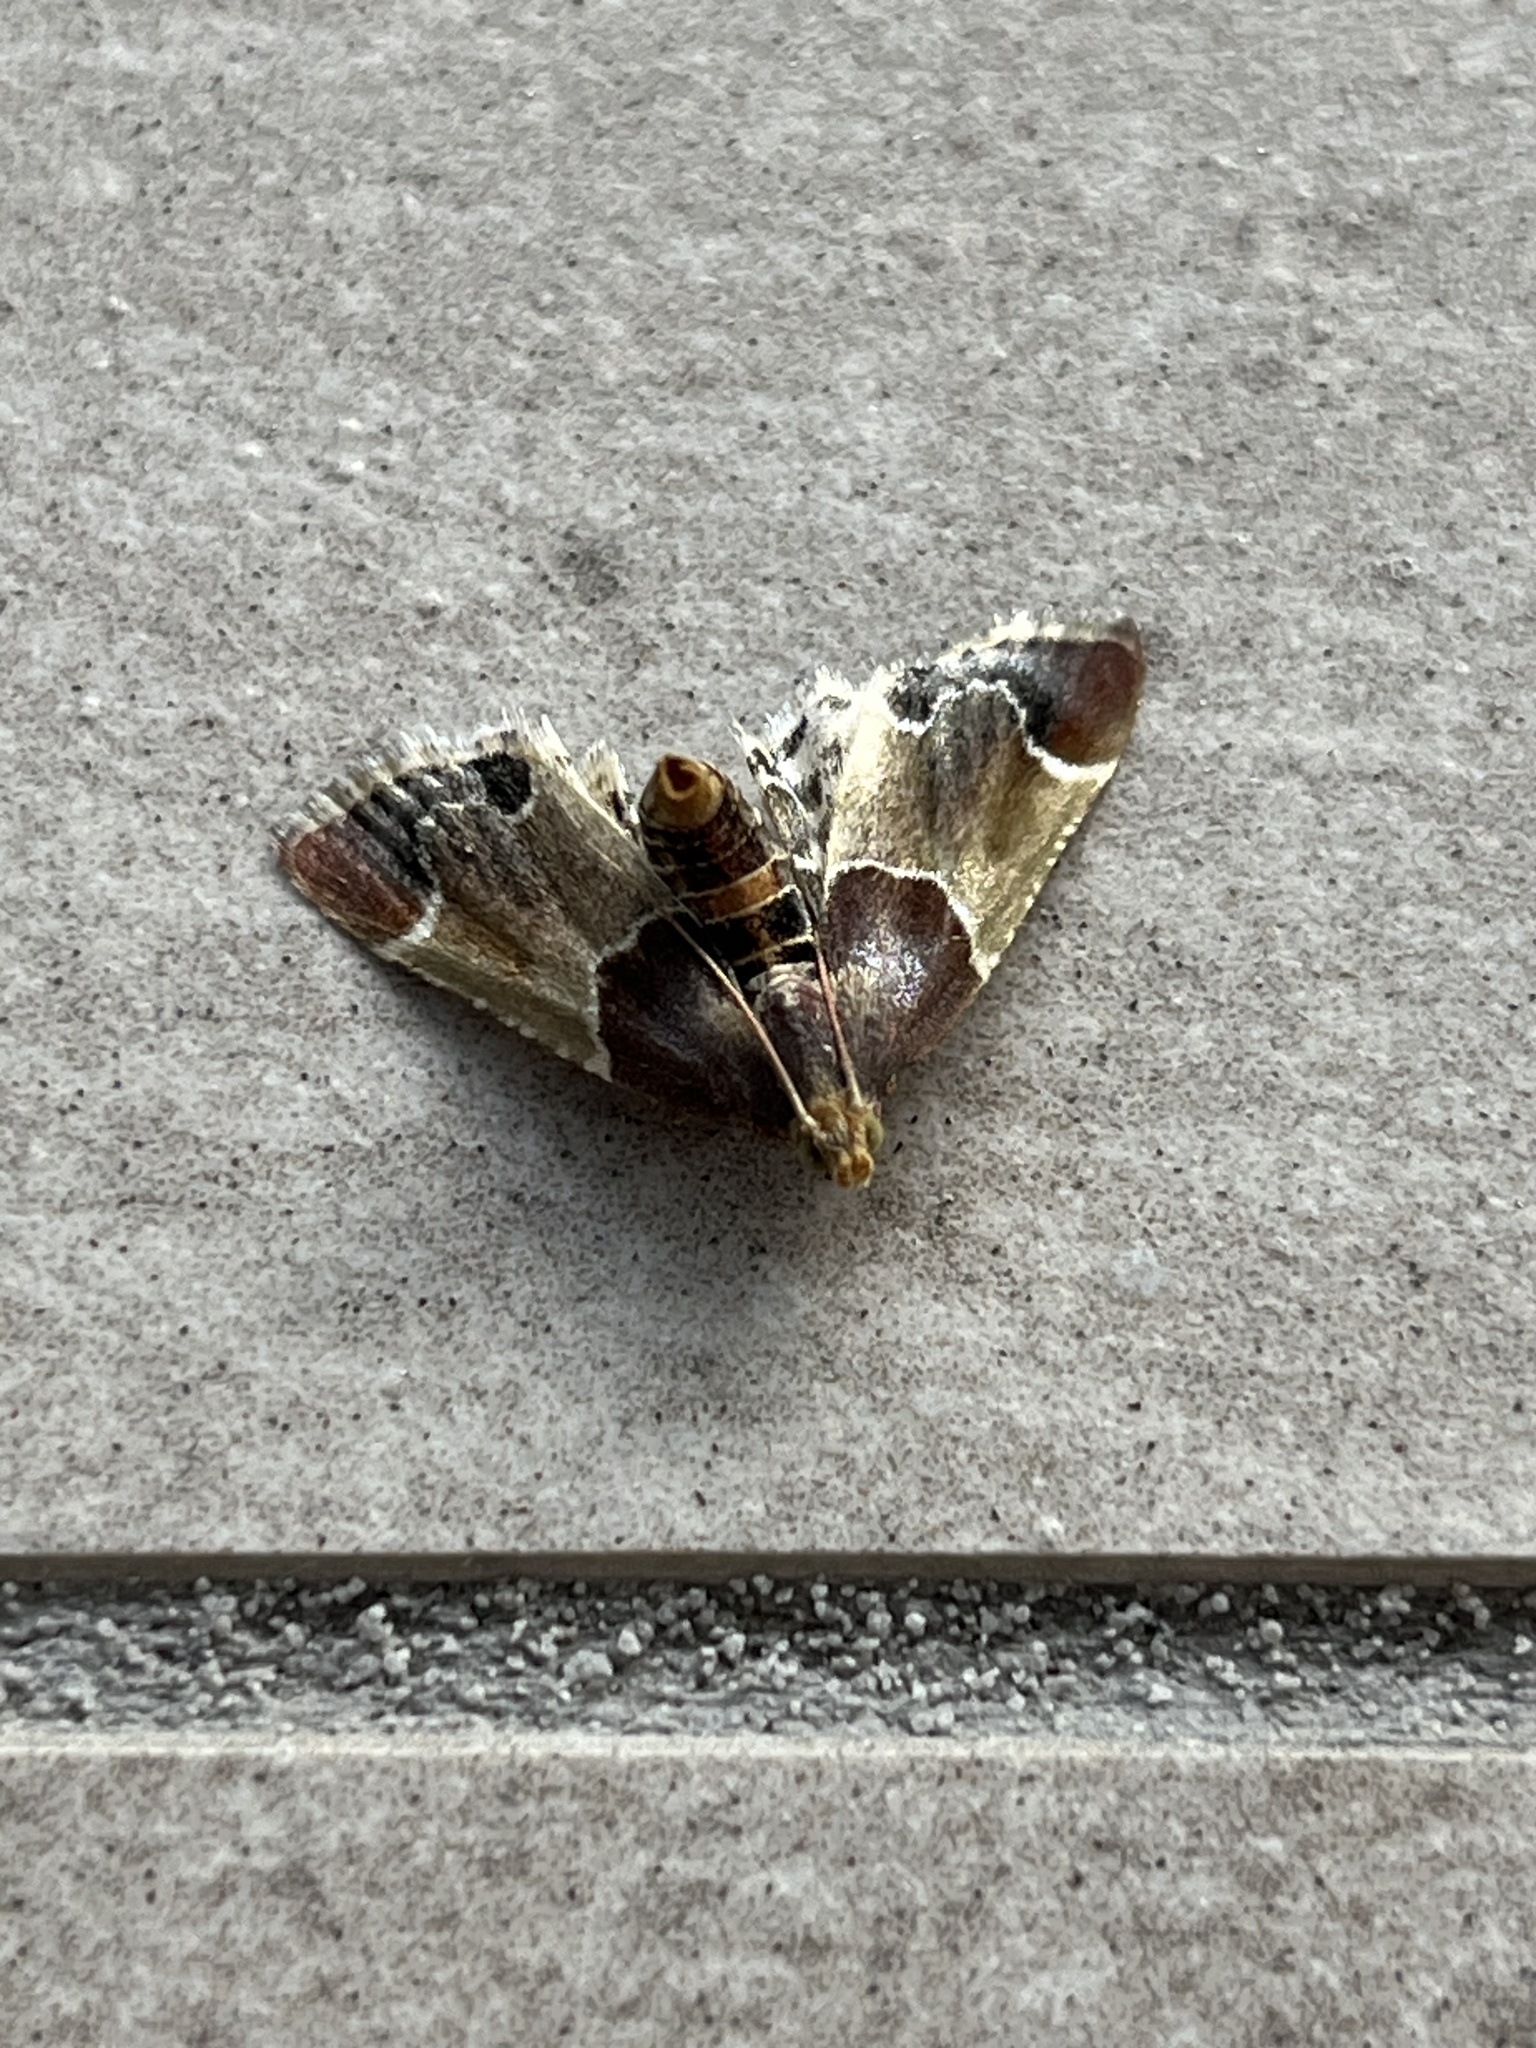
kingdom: Animalia
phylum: Arthropoda
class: Insecta
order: Lepidoptera
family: Pyralidae
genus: Pyralis
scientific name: Pyralis farinalis
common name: Meal moth
